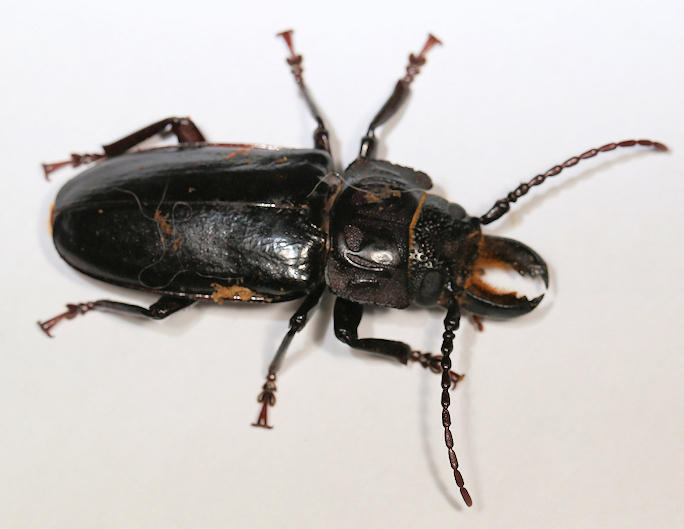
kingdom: Animalia
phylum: Arthropoda
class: Insecta
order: Coleoptera
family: Cerambycidae
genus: Mallodon
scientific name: Mallodon downesii
